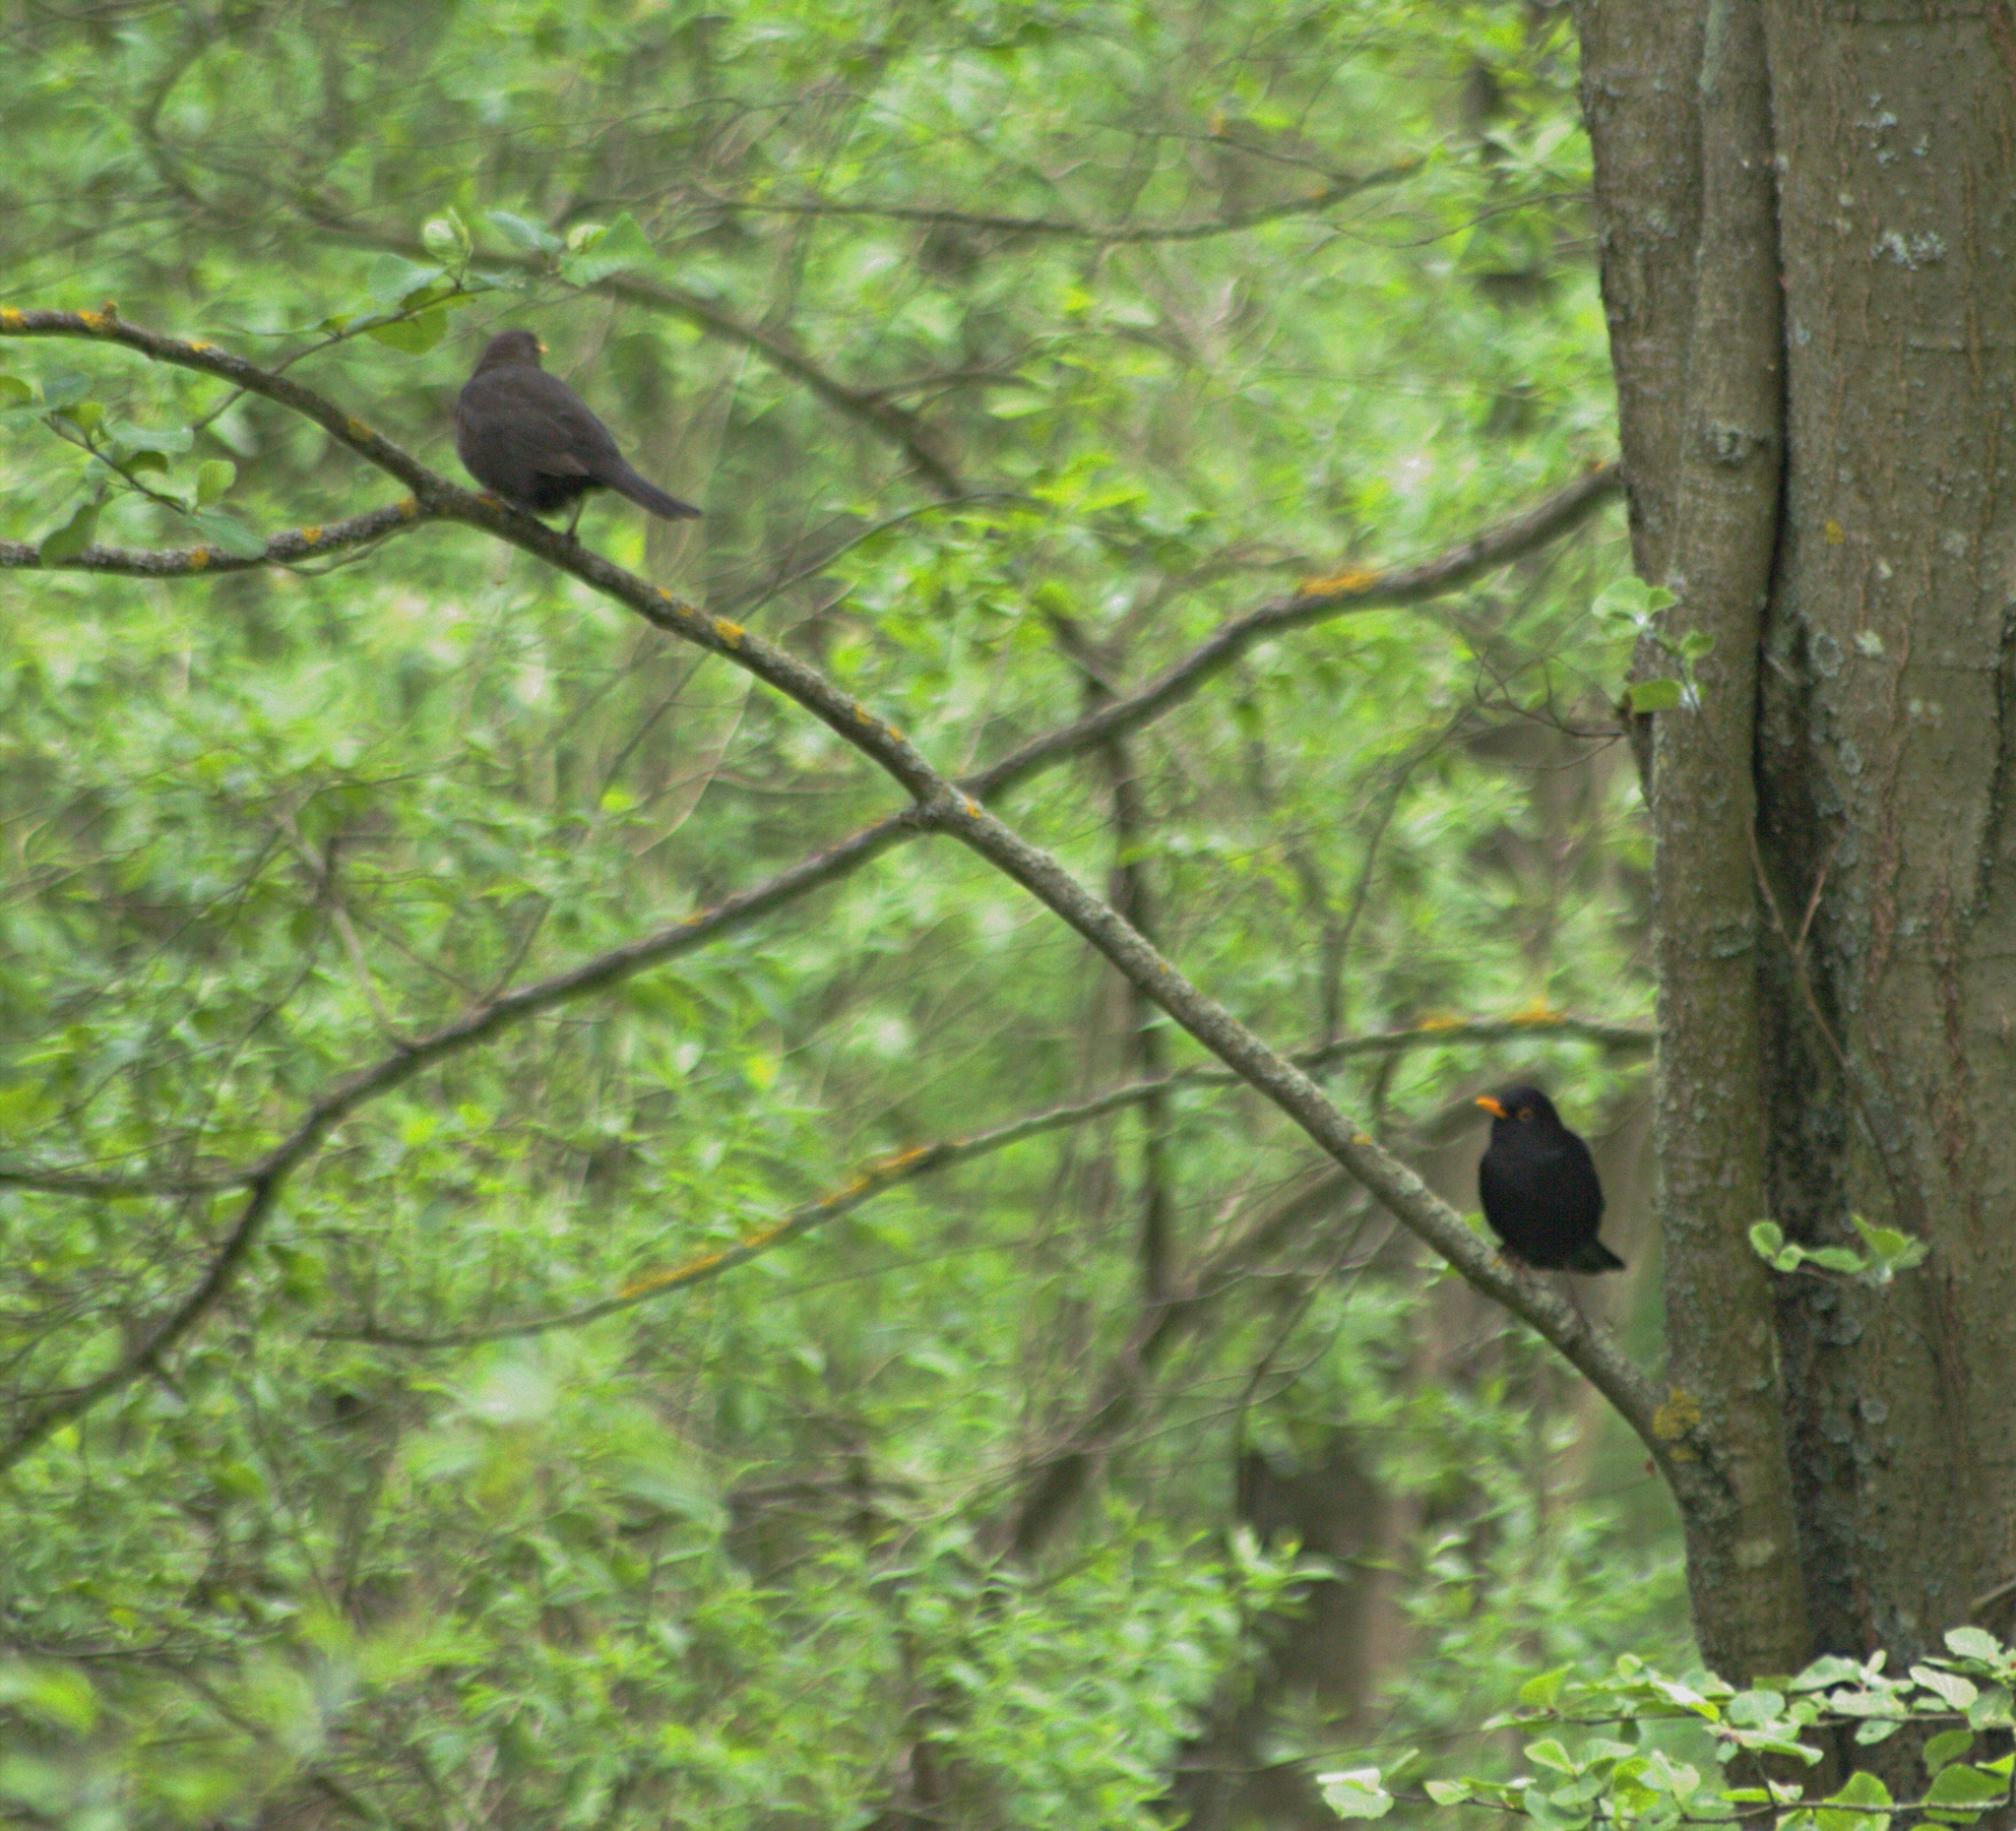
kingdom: Animalia
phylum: Chordata
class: Aves
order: Passeriformes
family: Turdidae
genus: Turdus
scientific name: Turdus merula
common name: Common blackbird
